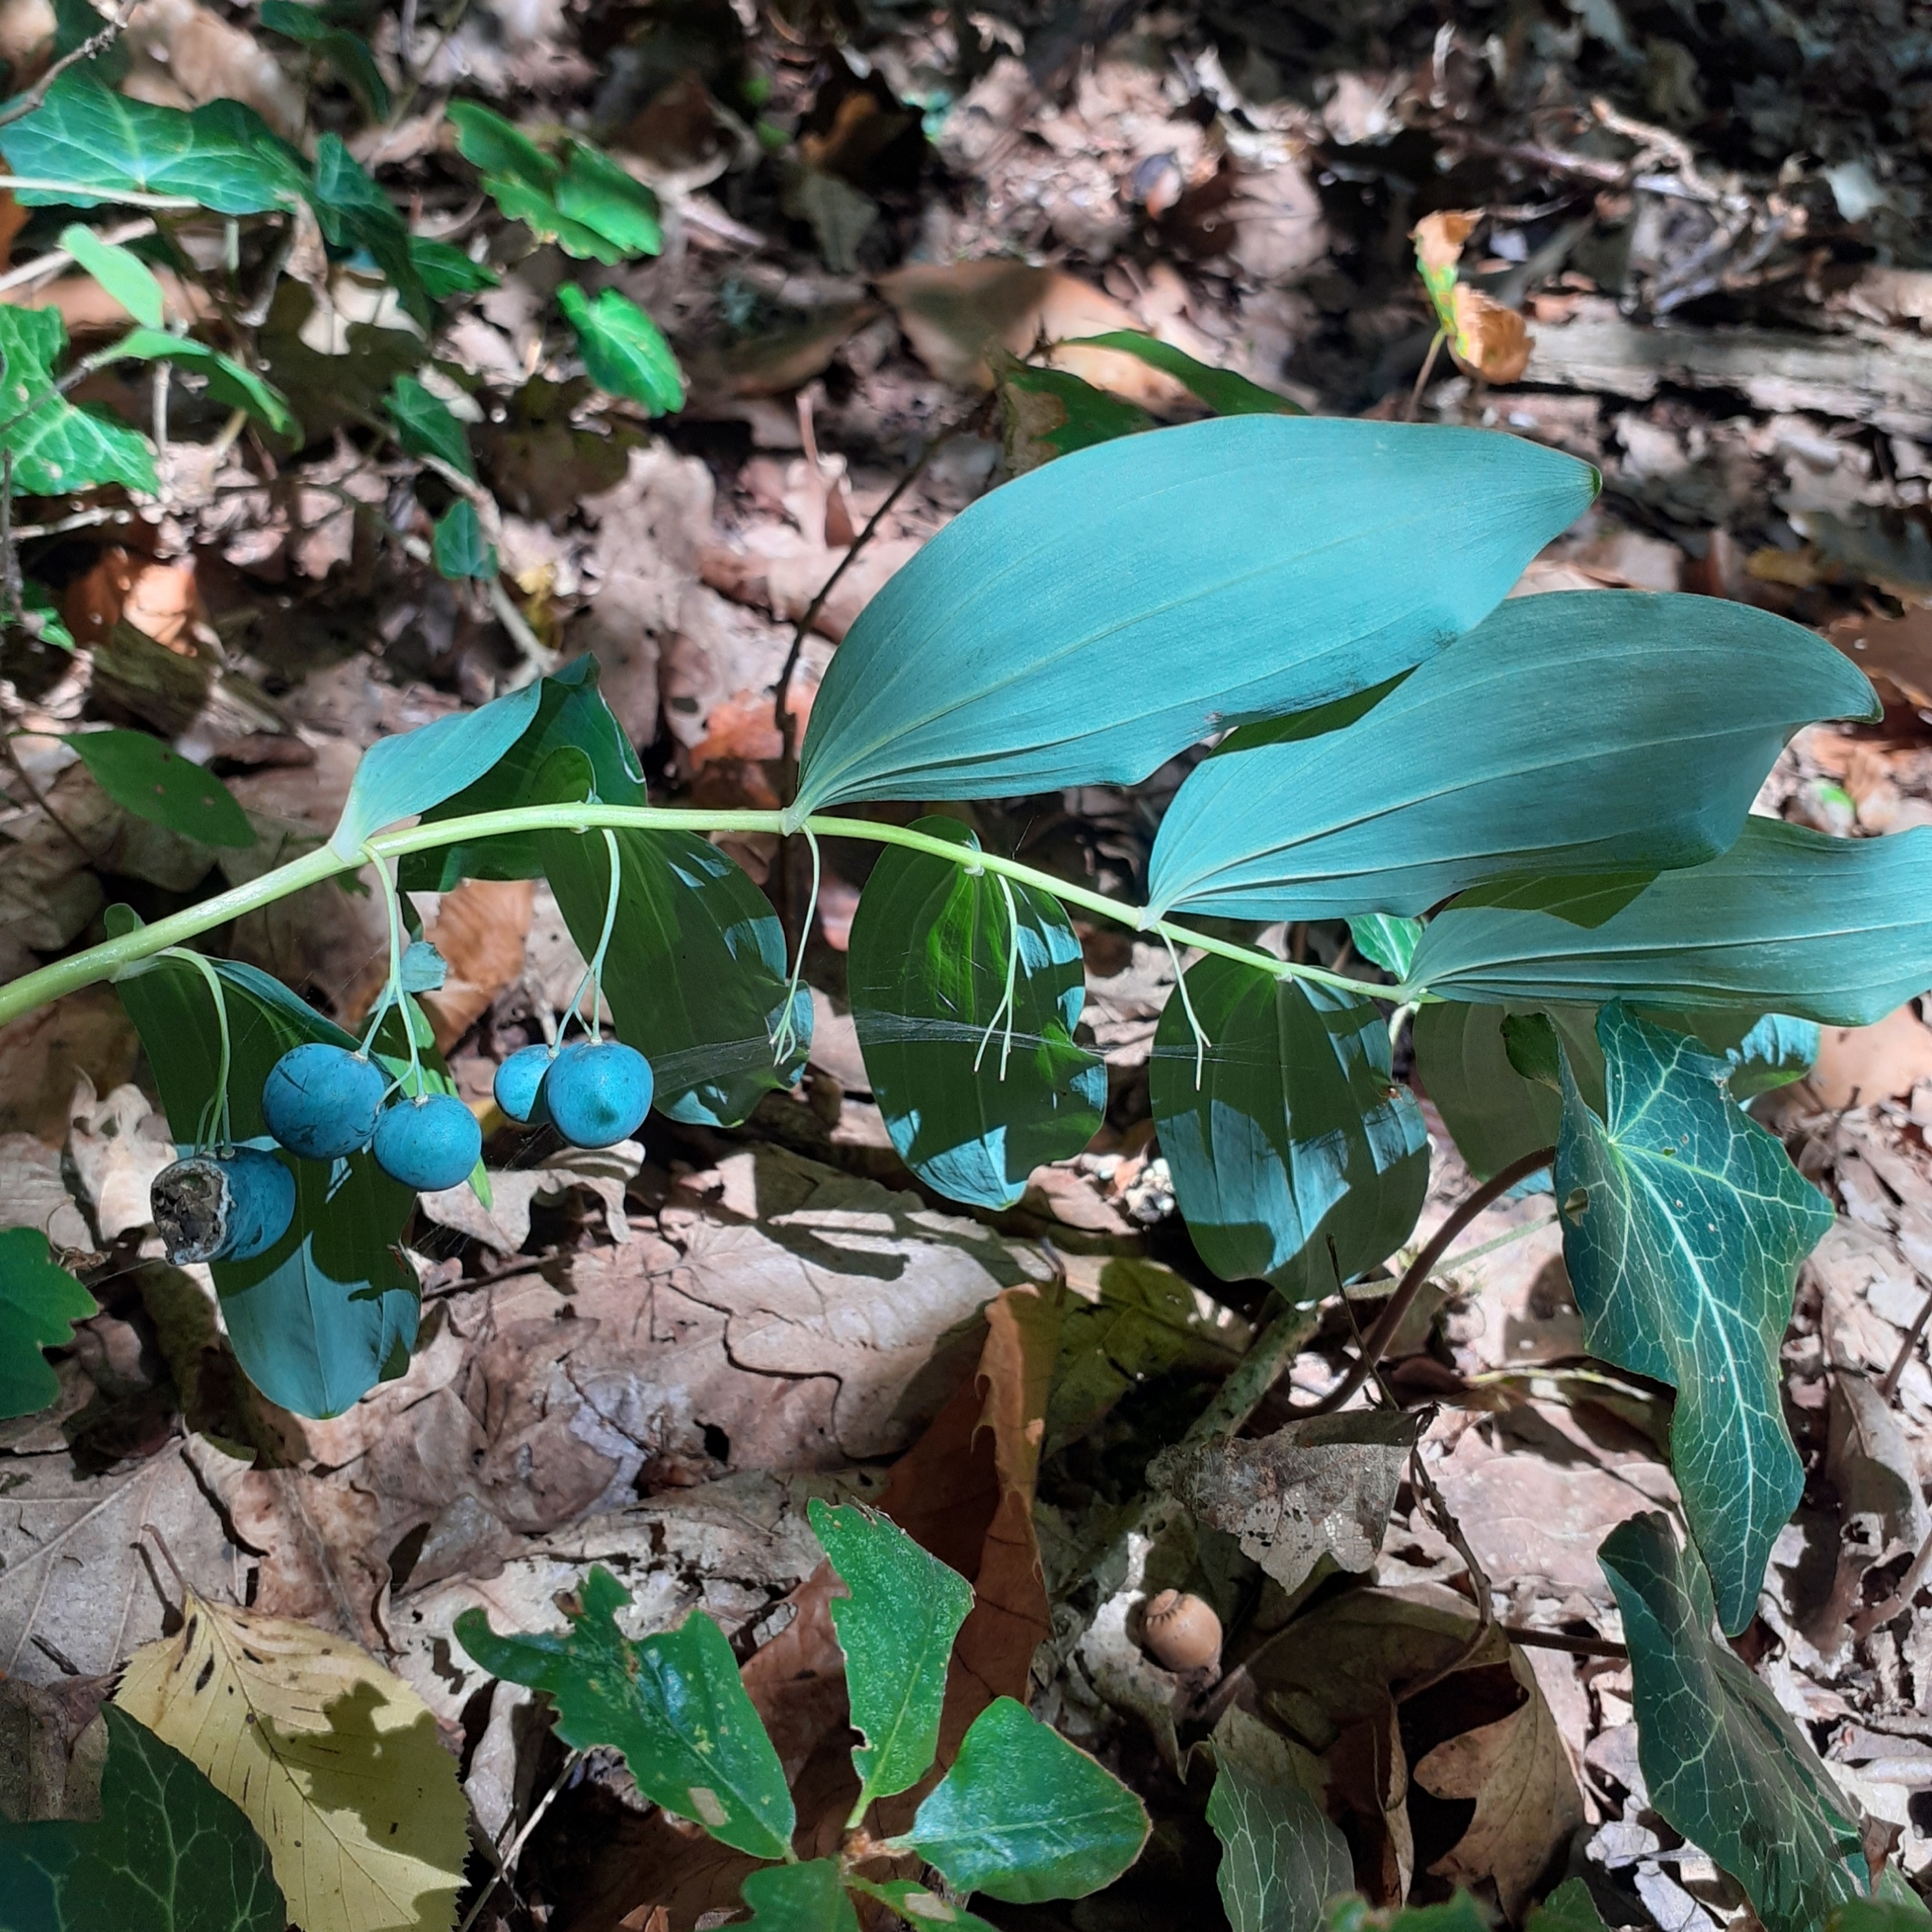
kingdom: Plantae
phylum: Tracheophyta
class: Liliopsida
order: Asparagales
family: Asparagaceae
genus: Polygonatum
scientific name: Polygonatum multiflorum
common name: Solomon's-seal
